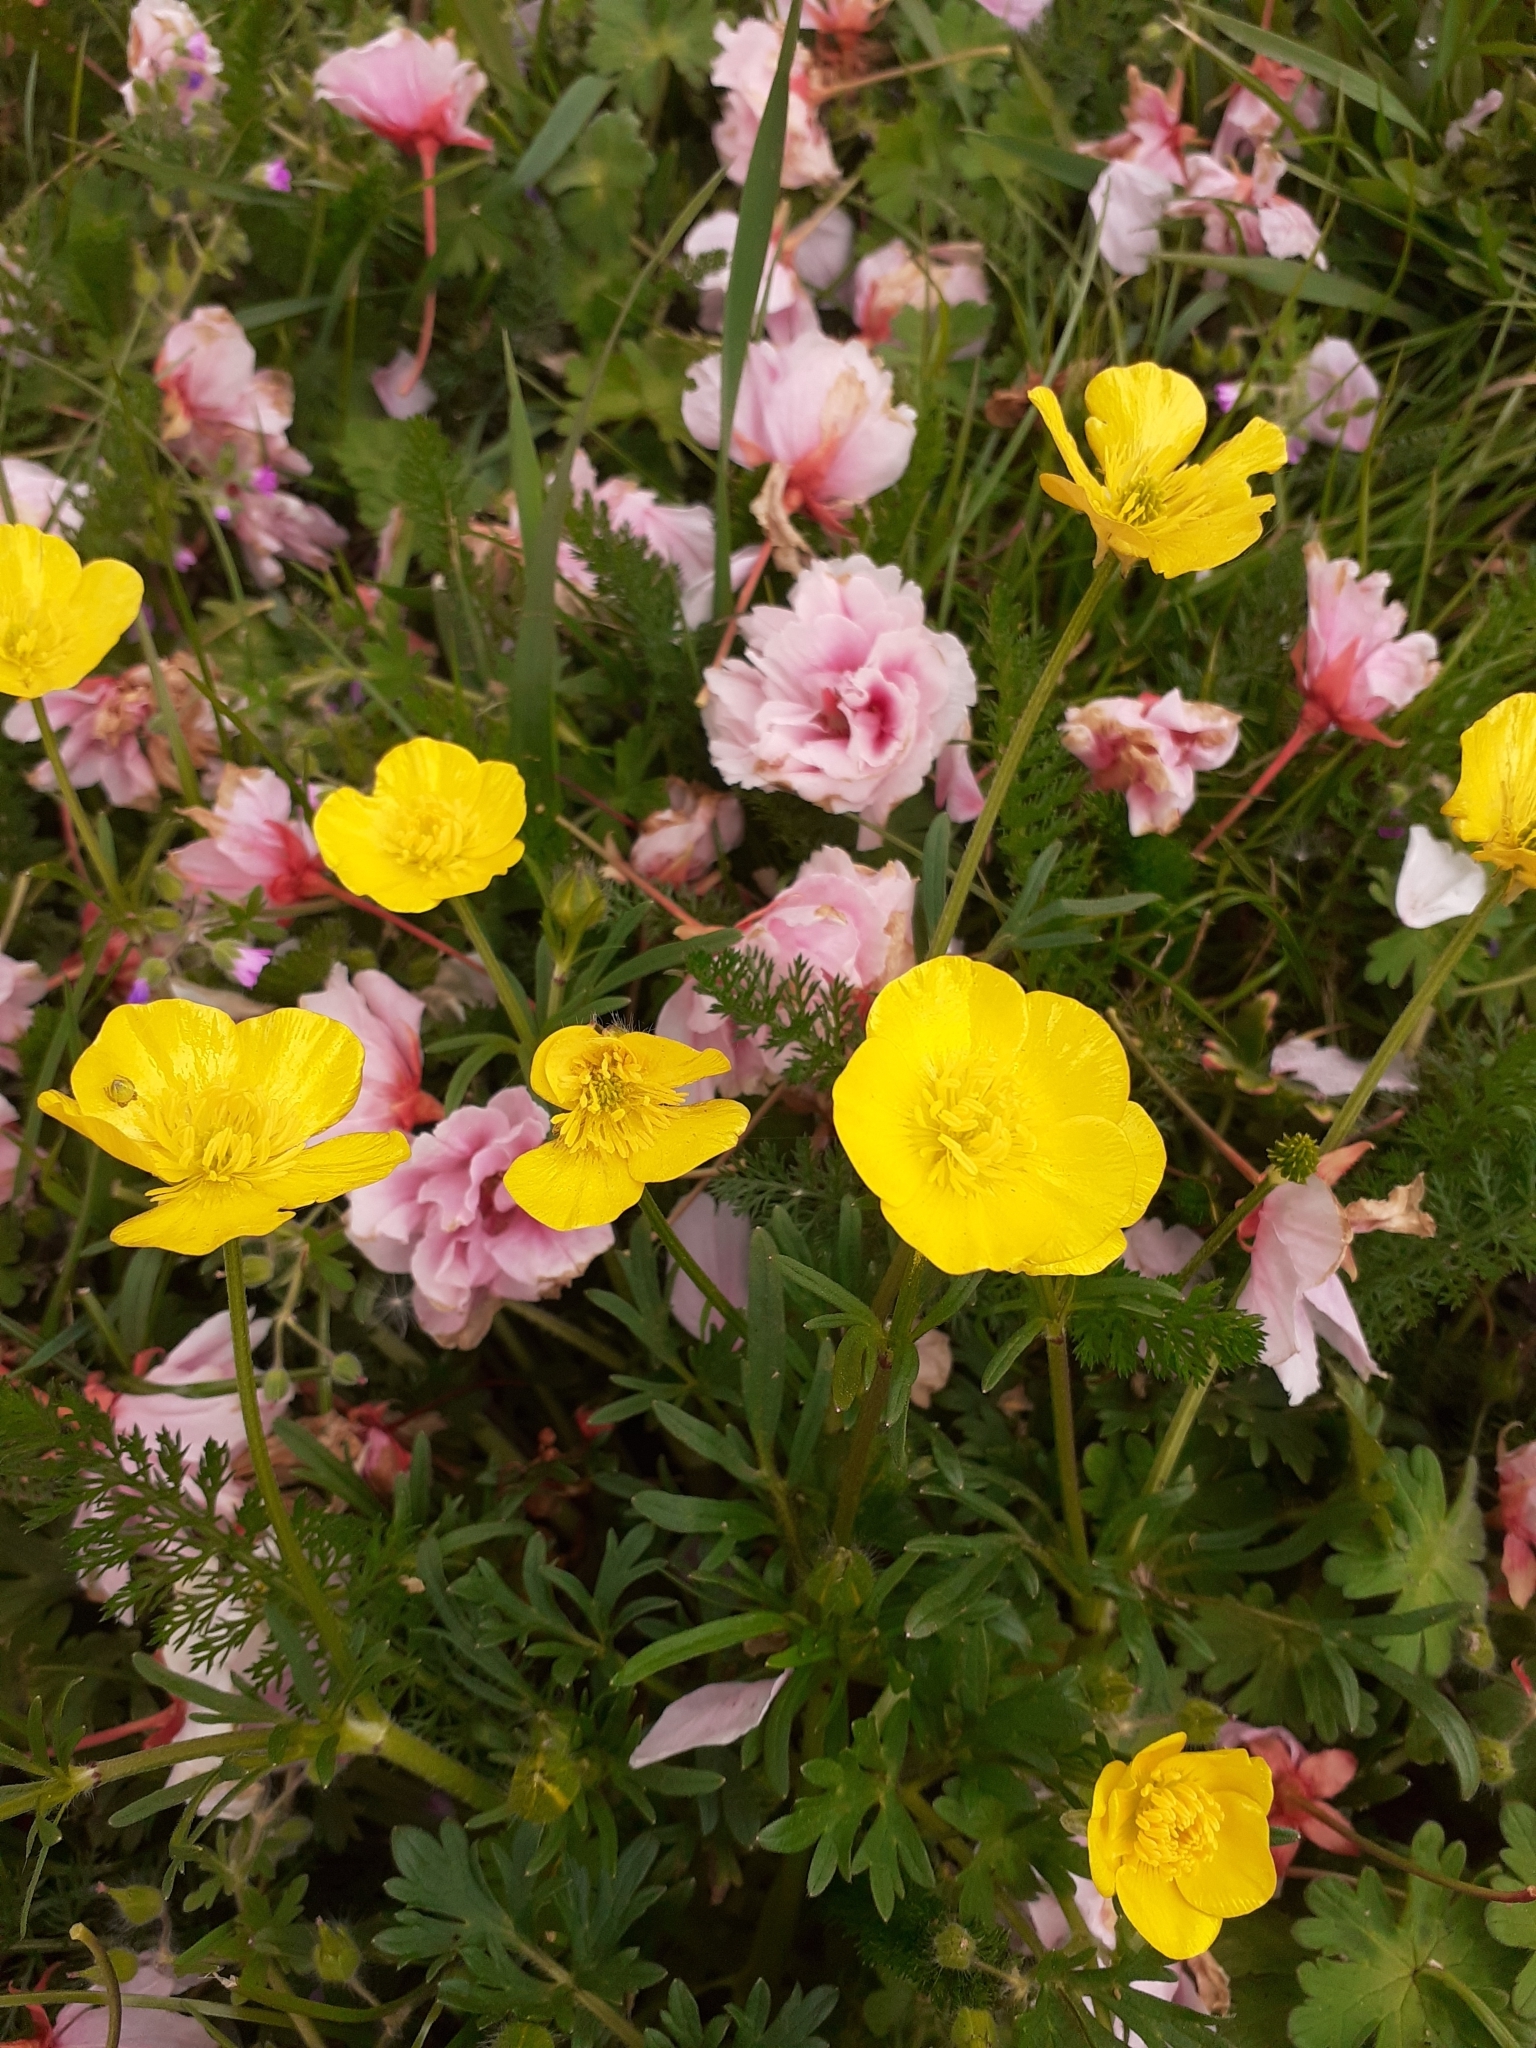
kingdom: Plantae
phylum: Tracheophyta
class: Magnoliopsida
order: Ranunculales
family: Ranunculaceae
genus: Ranunculus
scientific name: Ranunculus bulbosus
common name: Bulbous buttercup
